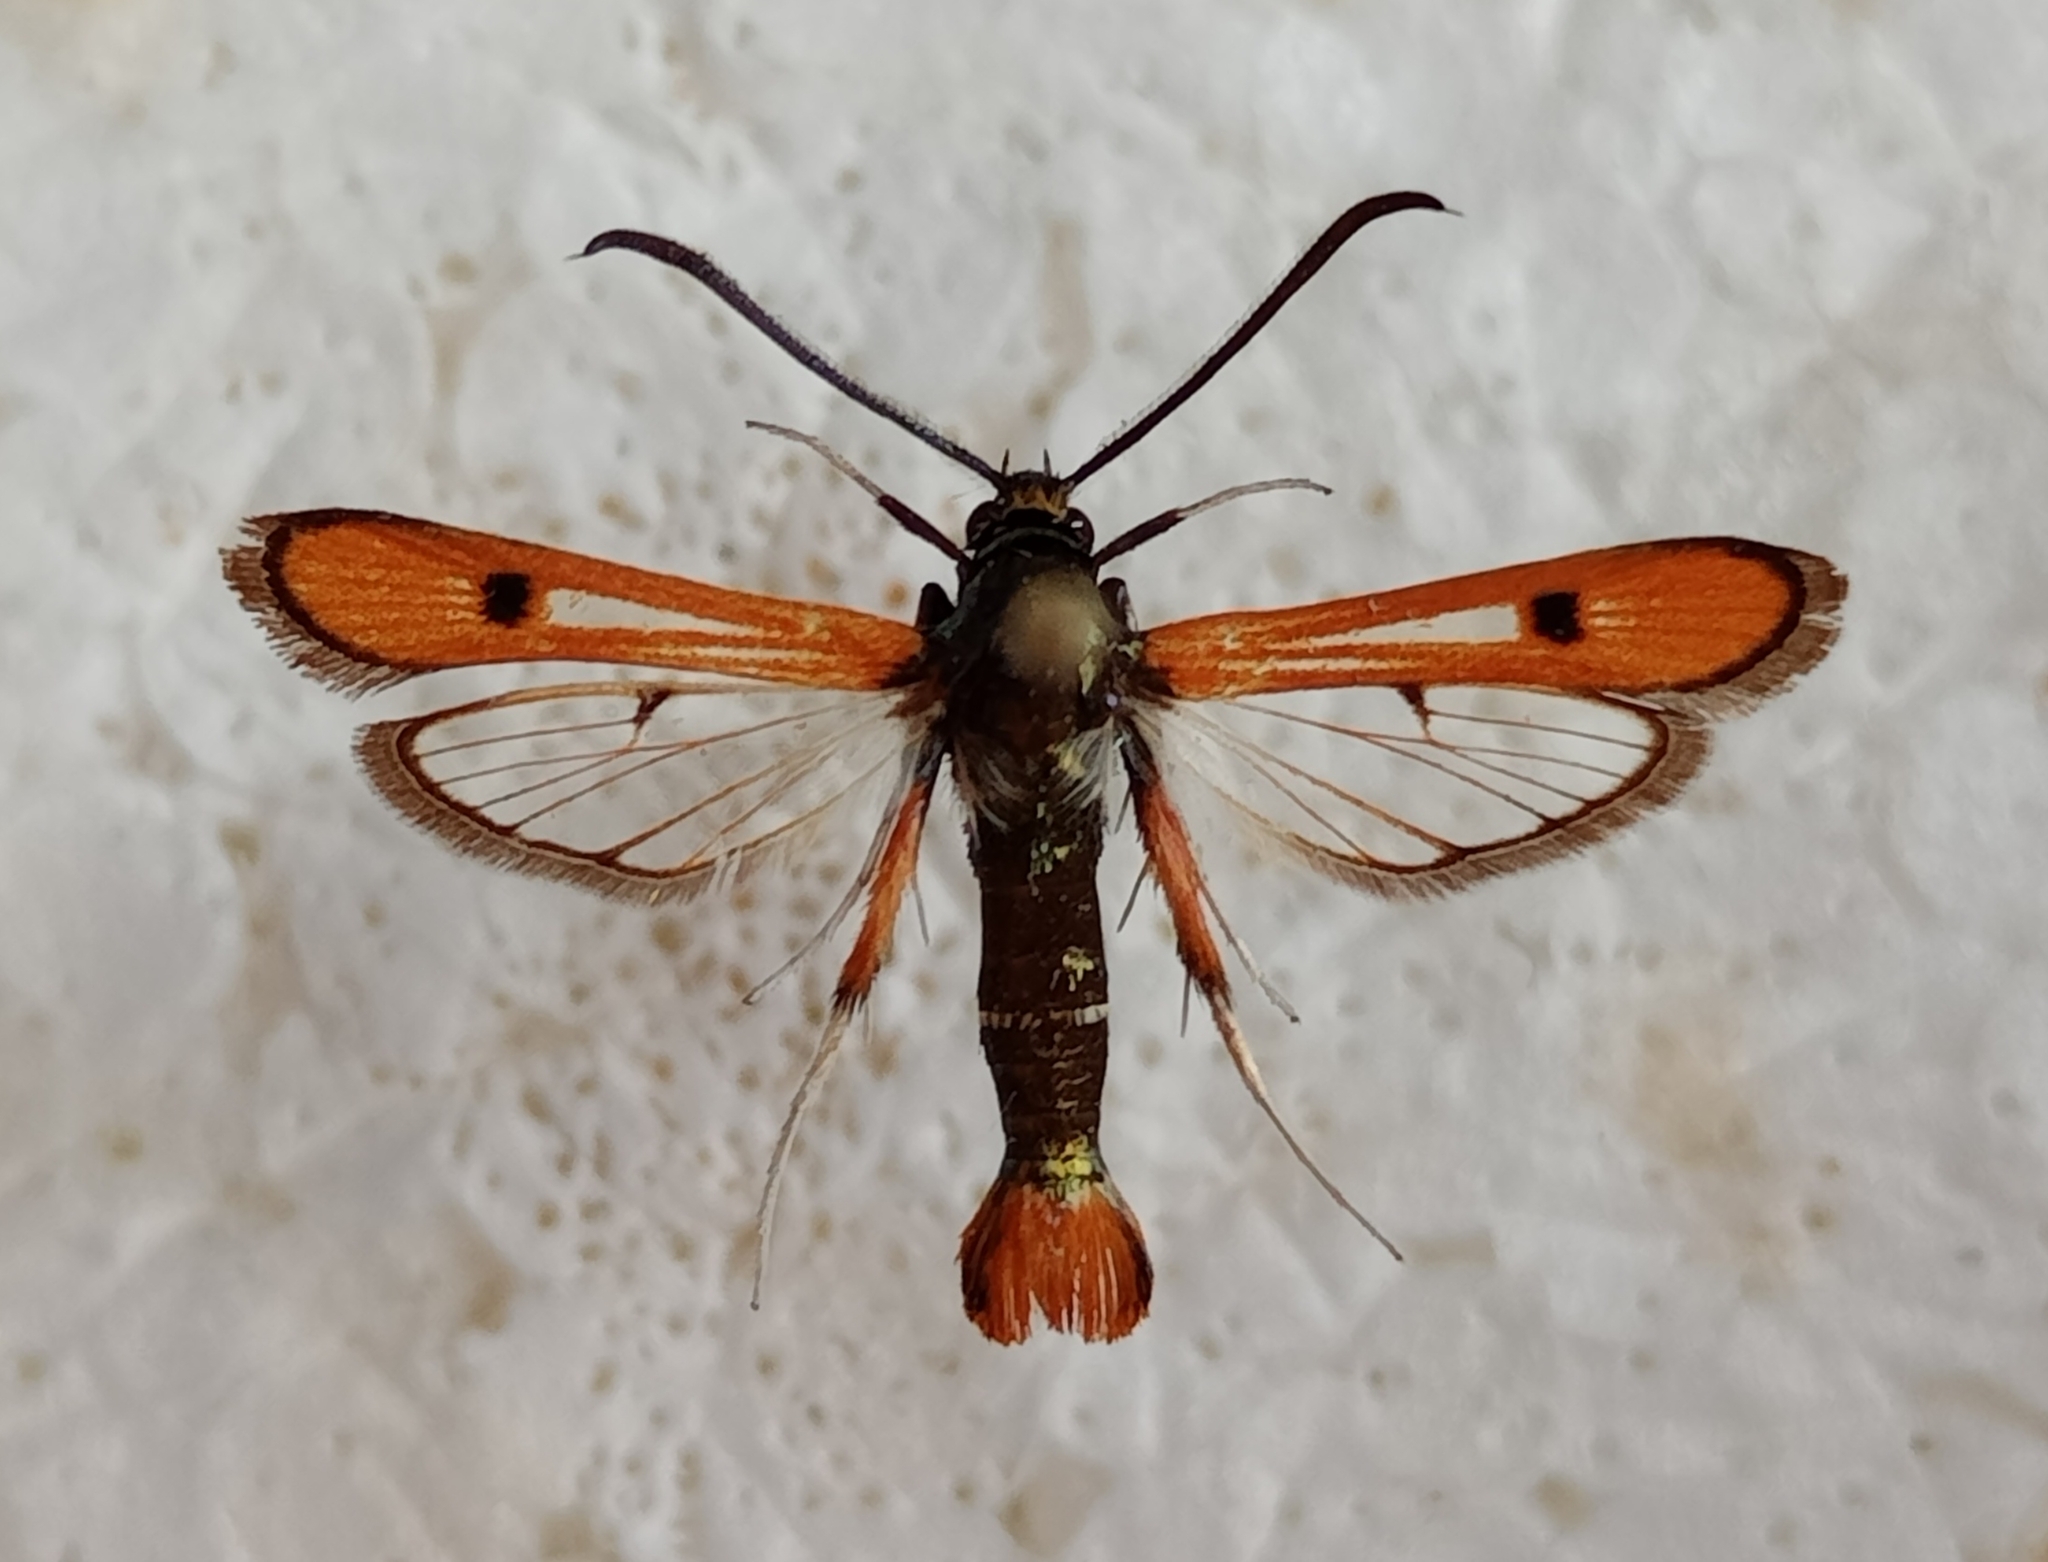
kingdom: Animalia
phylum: Arthropoda
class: Insecta
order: Lepidoptera
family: Sesiidae
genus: Chamaesphecia
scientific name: Chamaesphecia schmidtiiformis
